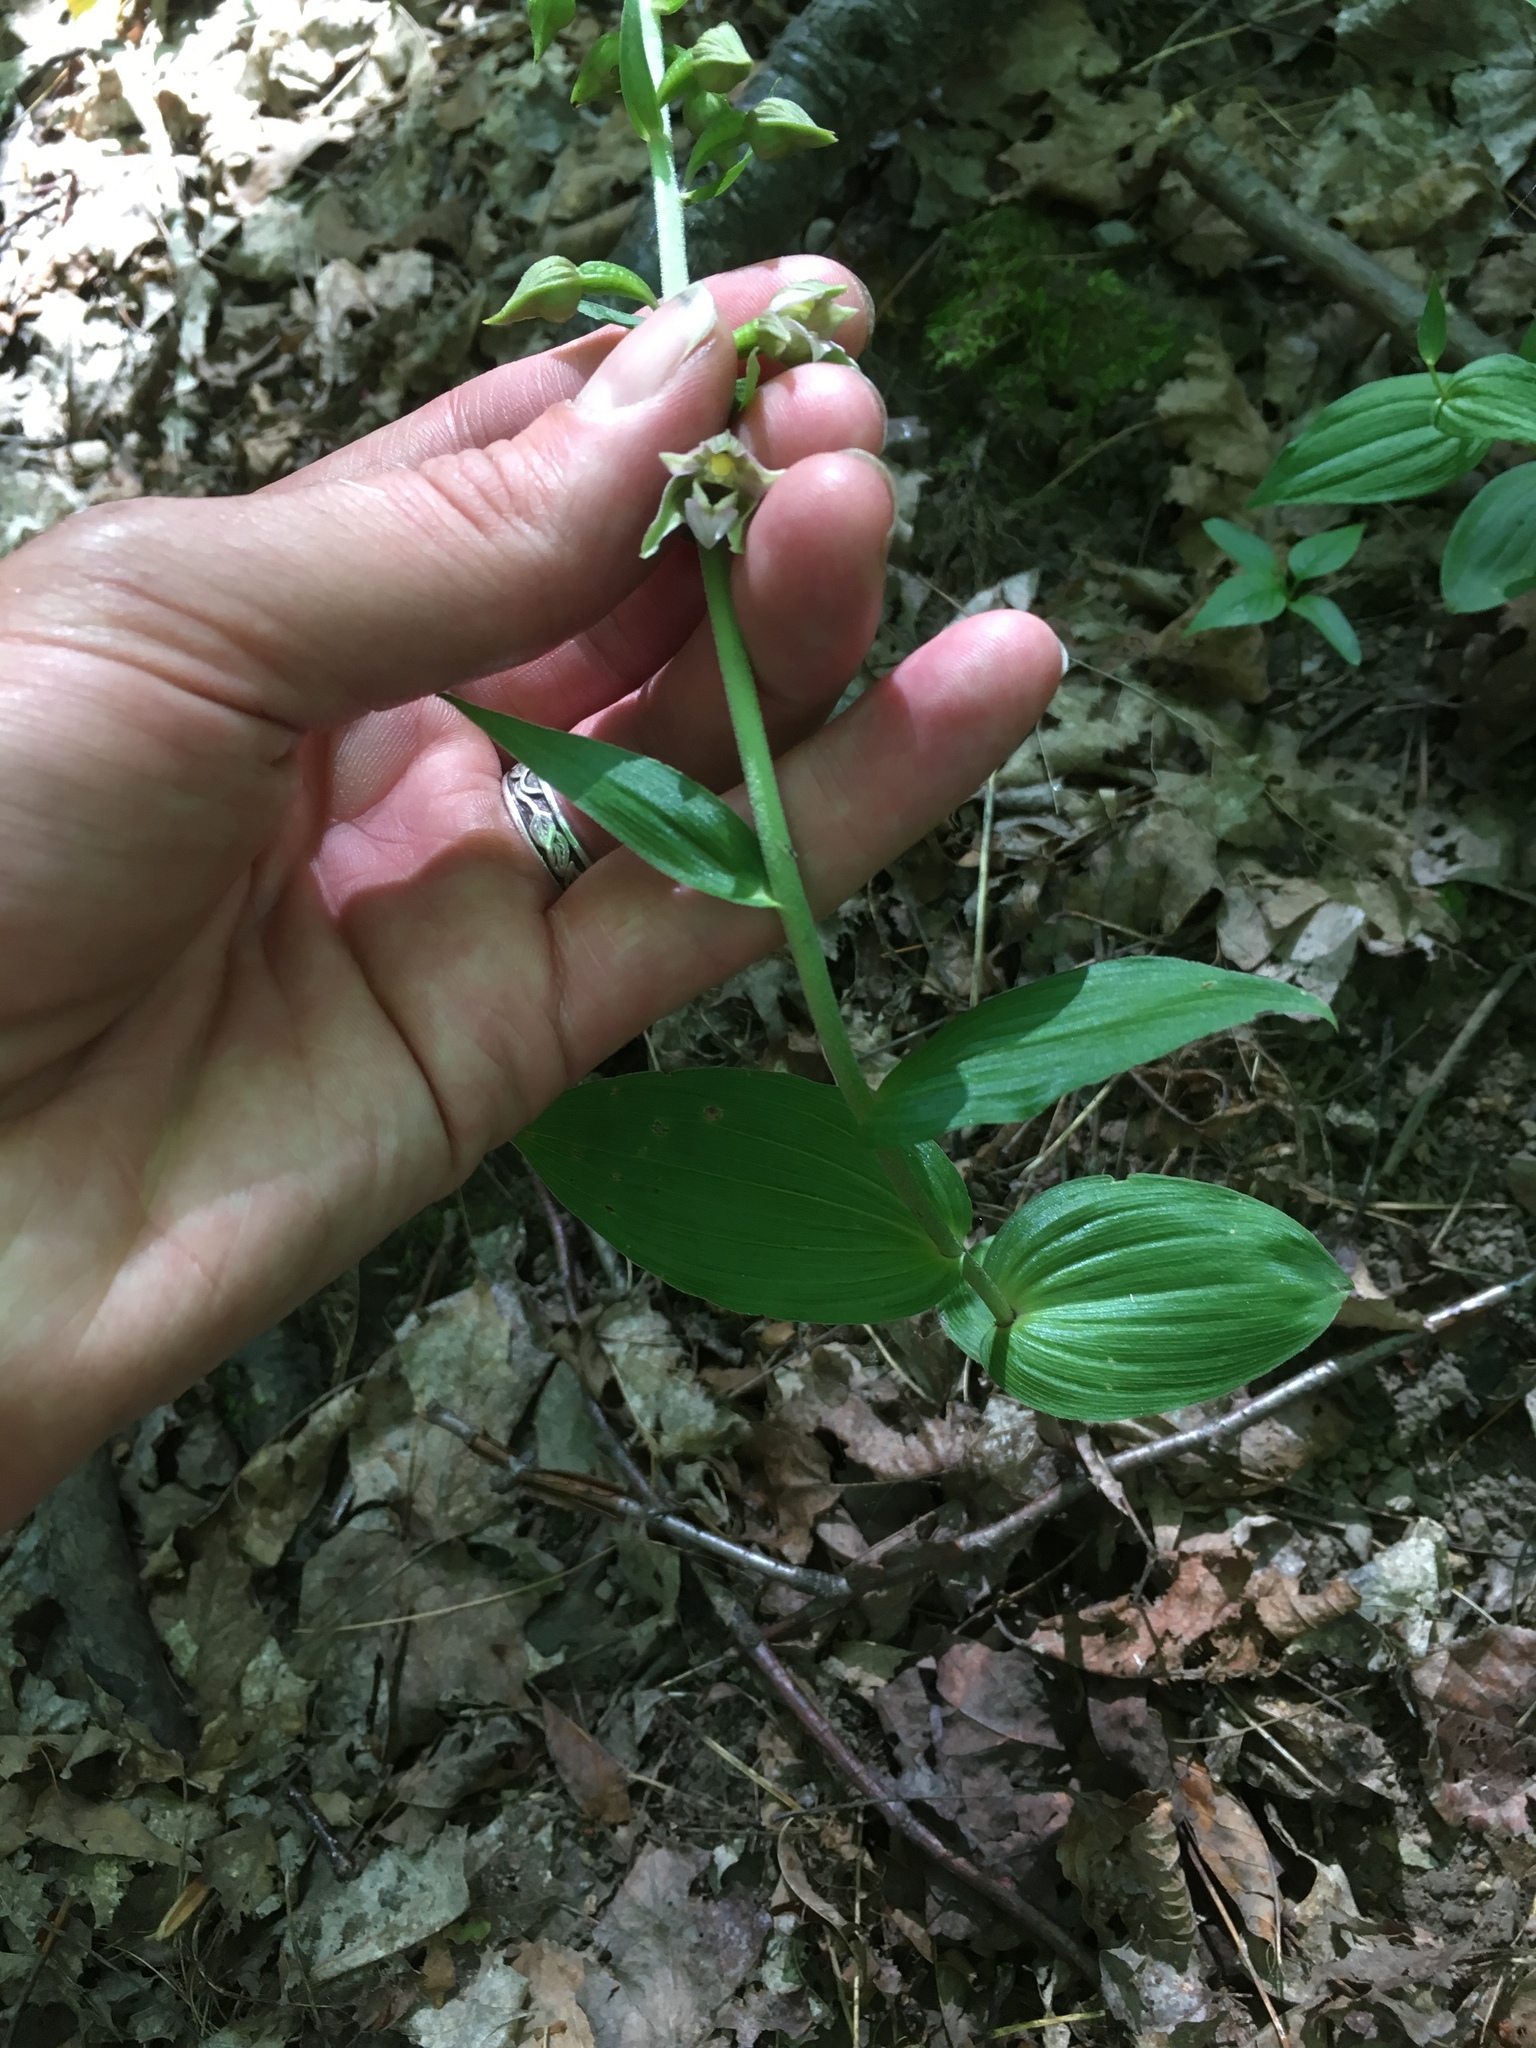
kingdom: Plantae
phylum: Tracheophyta
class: Liliopsida
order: Asparagales
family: Orchidaceae
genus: Epipactis
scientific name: Epipactis helleborine
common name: Broad-leaved helleborine
